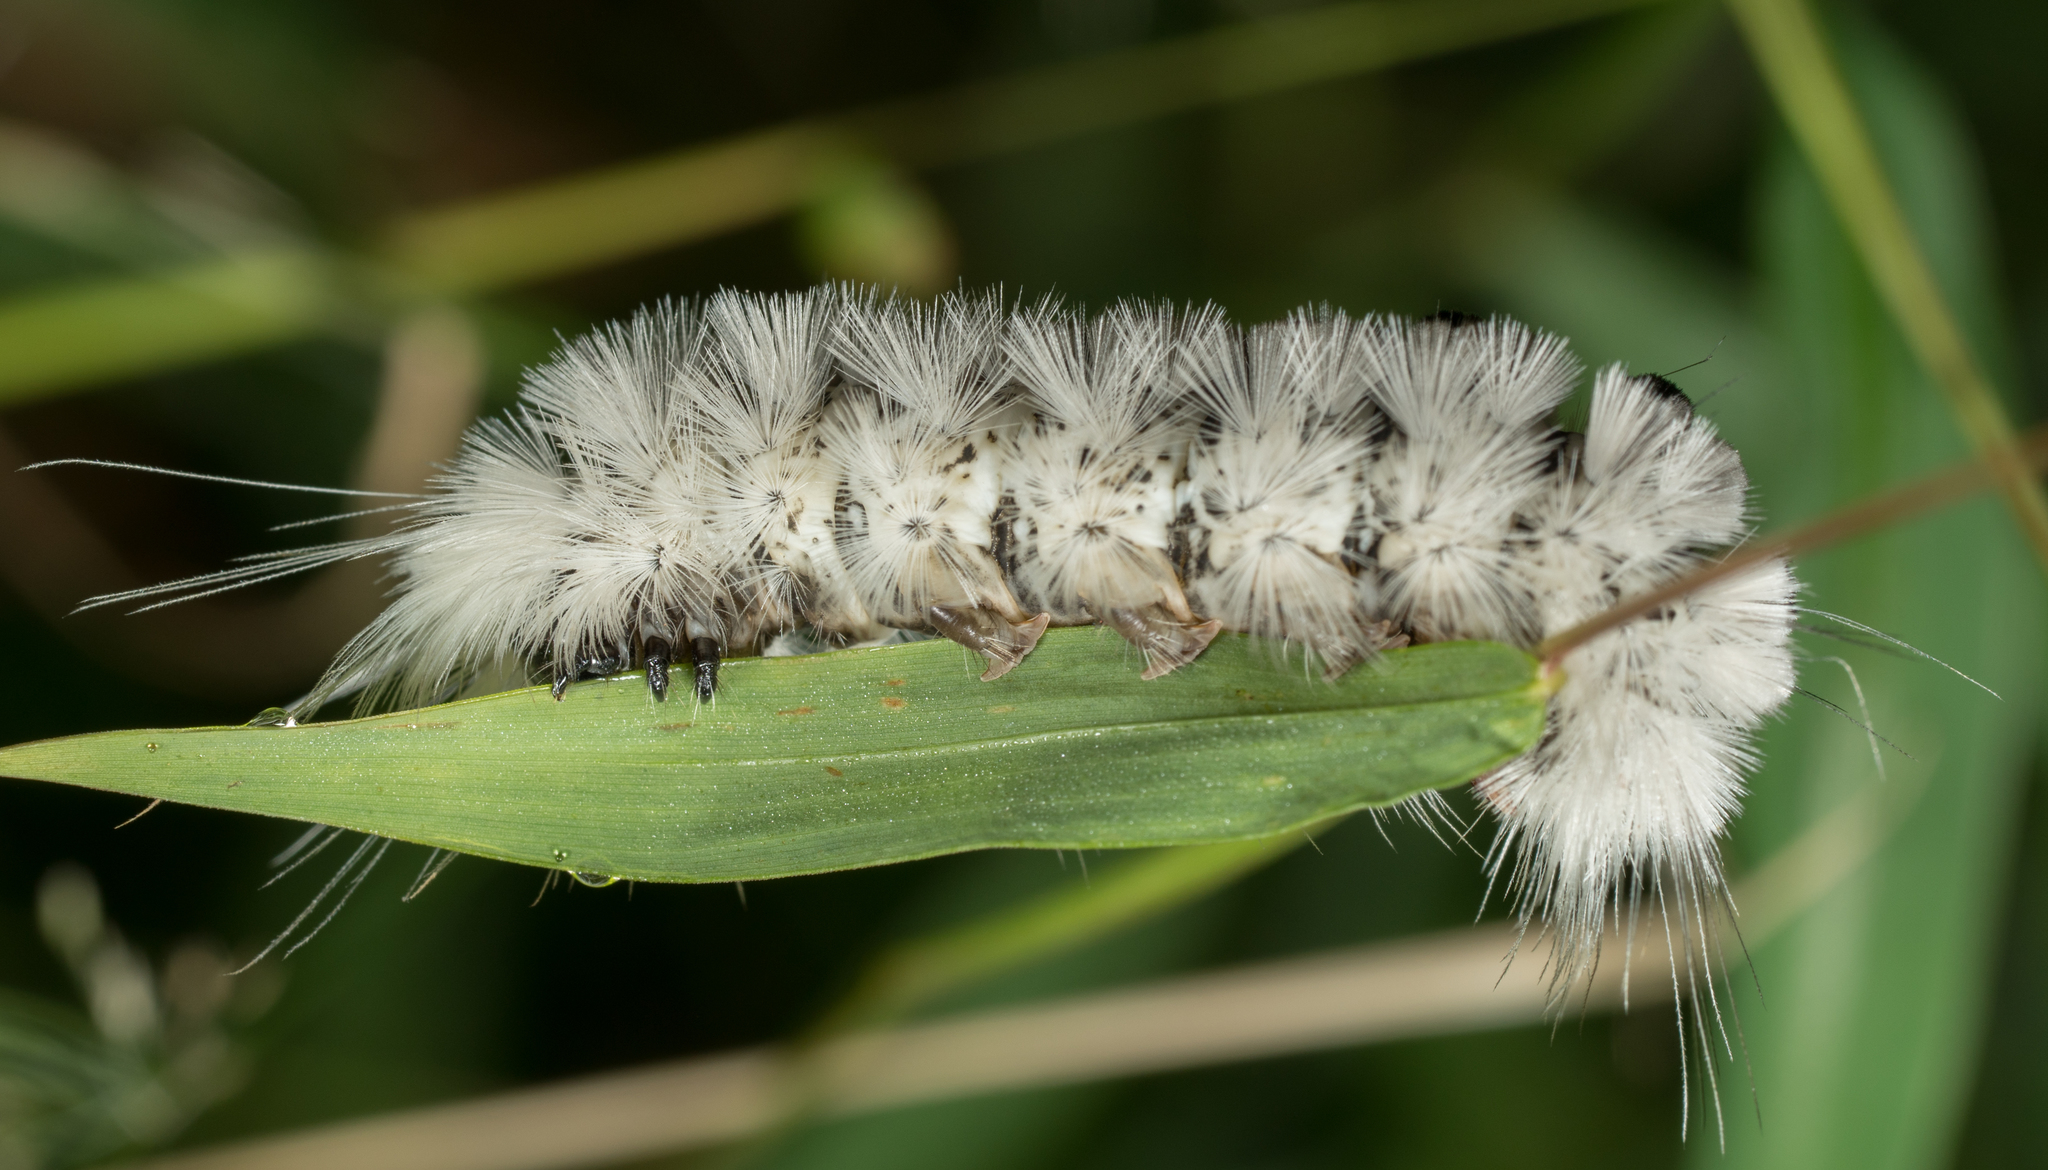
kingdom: Animalia
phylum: Arthropoda
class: Insecta
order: Lepidoptera
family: Erebidae
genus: Lophocampa
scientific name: Lophocampa caryae
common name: Hickory tussock moth
